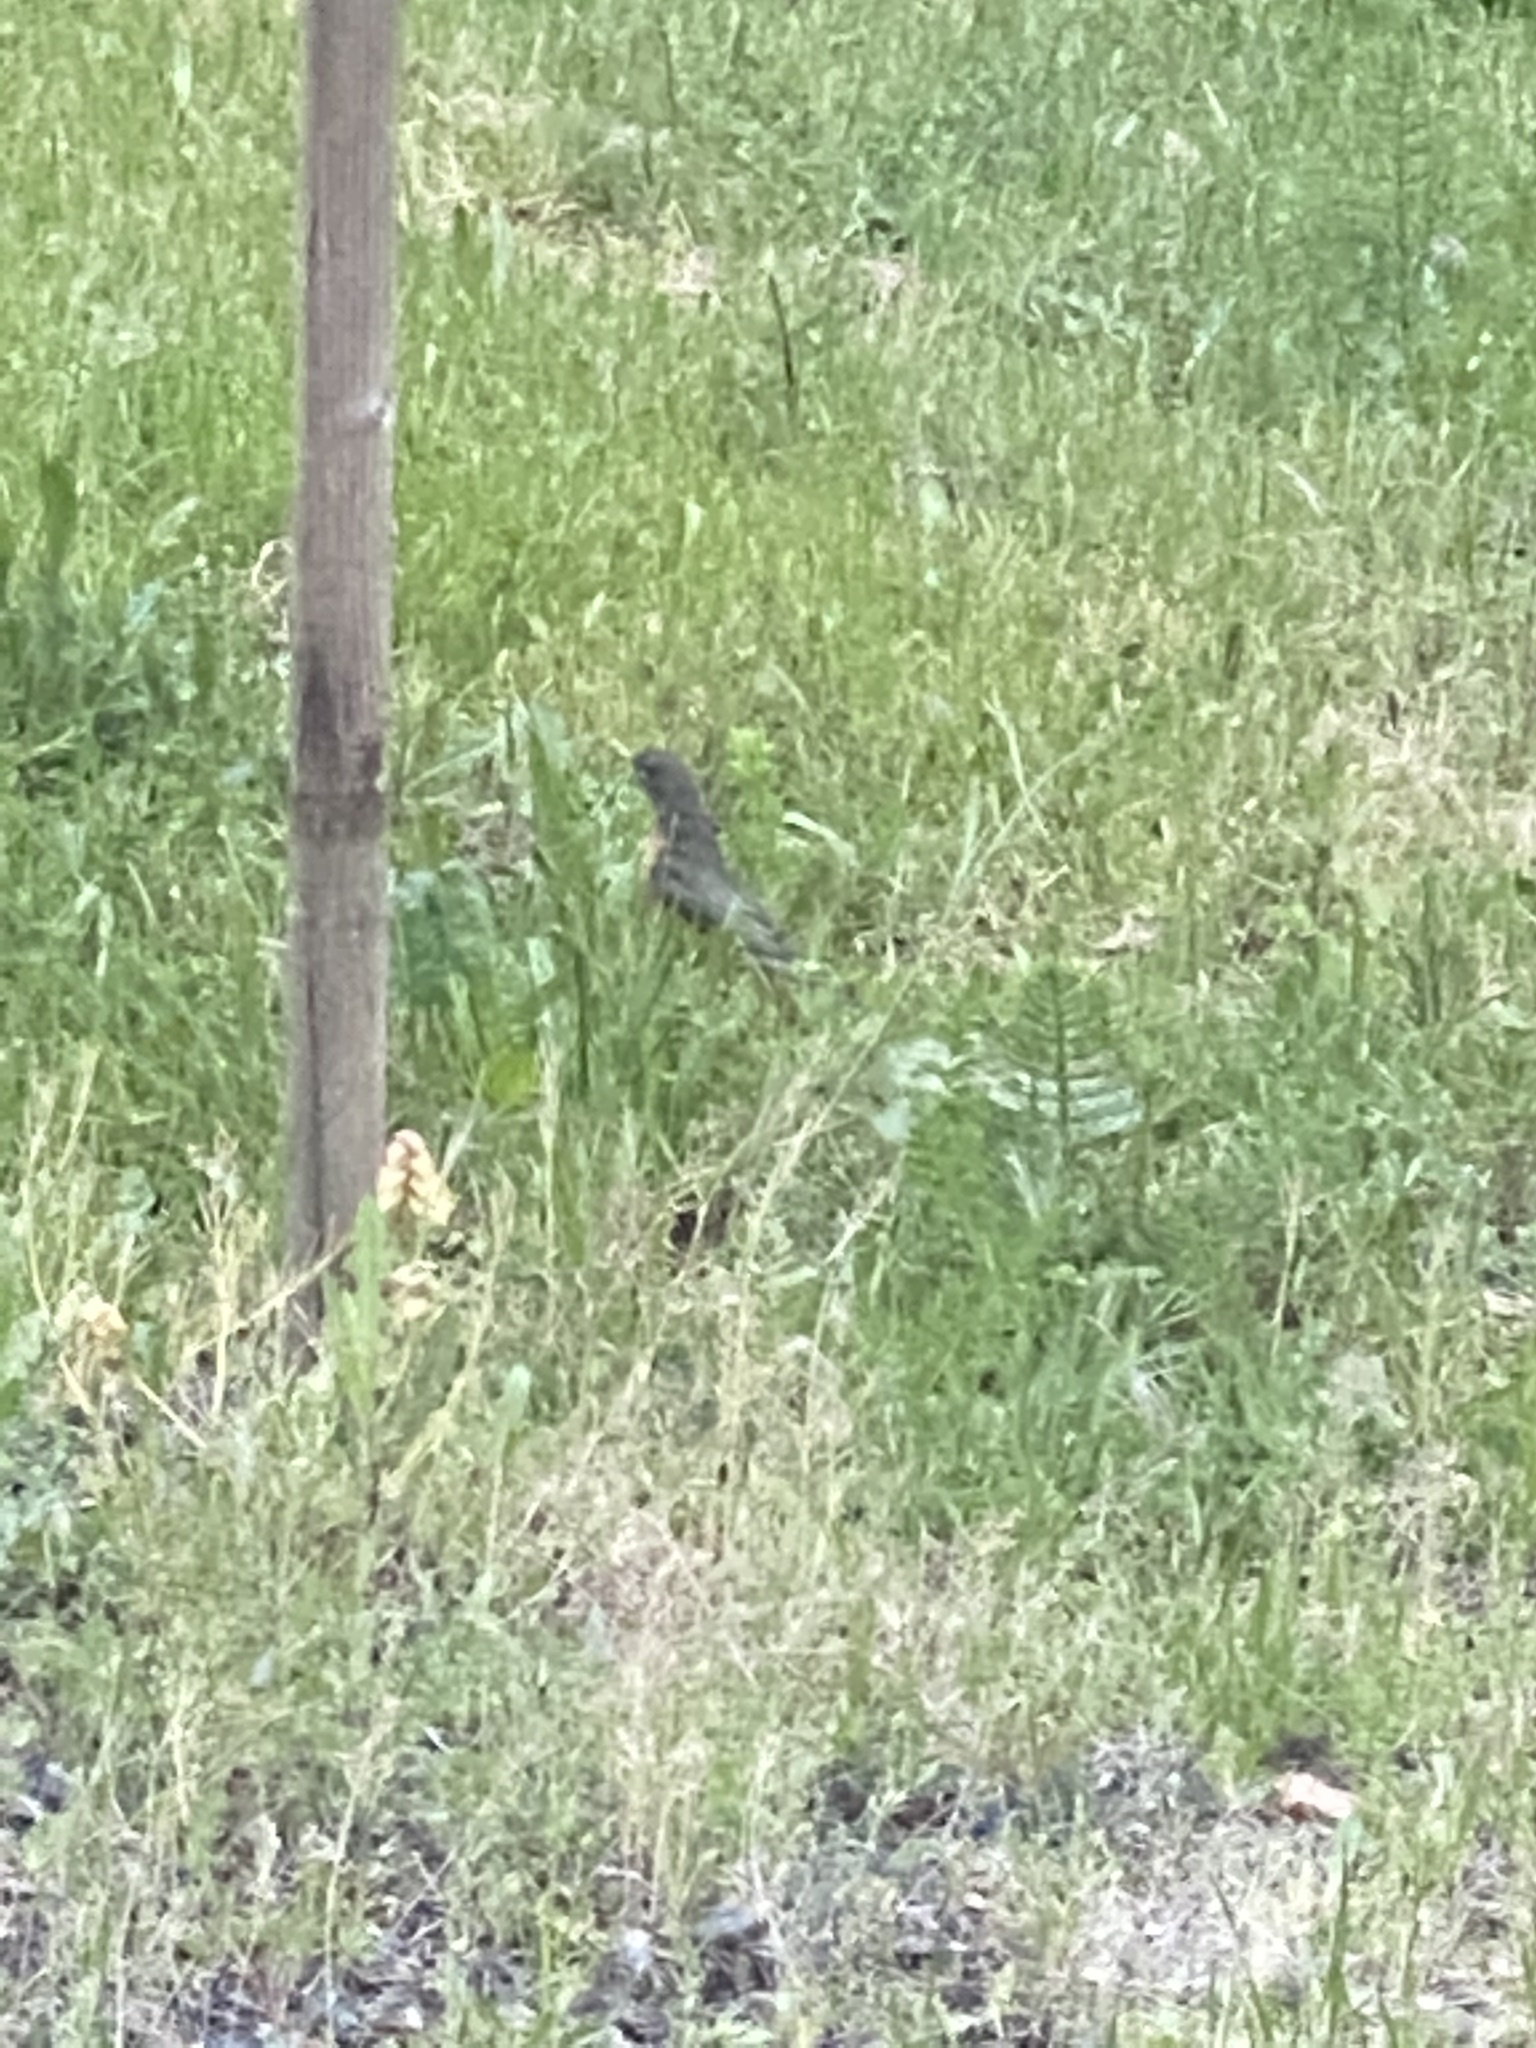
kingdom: Animalia
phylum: Chordata
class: Aves
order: Passeriformes
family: Turdidae
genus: Turdus
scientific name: Turdus migratorius
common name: American robin
